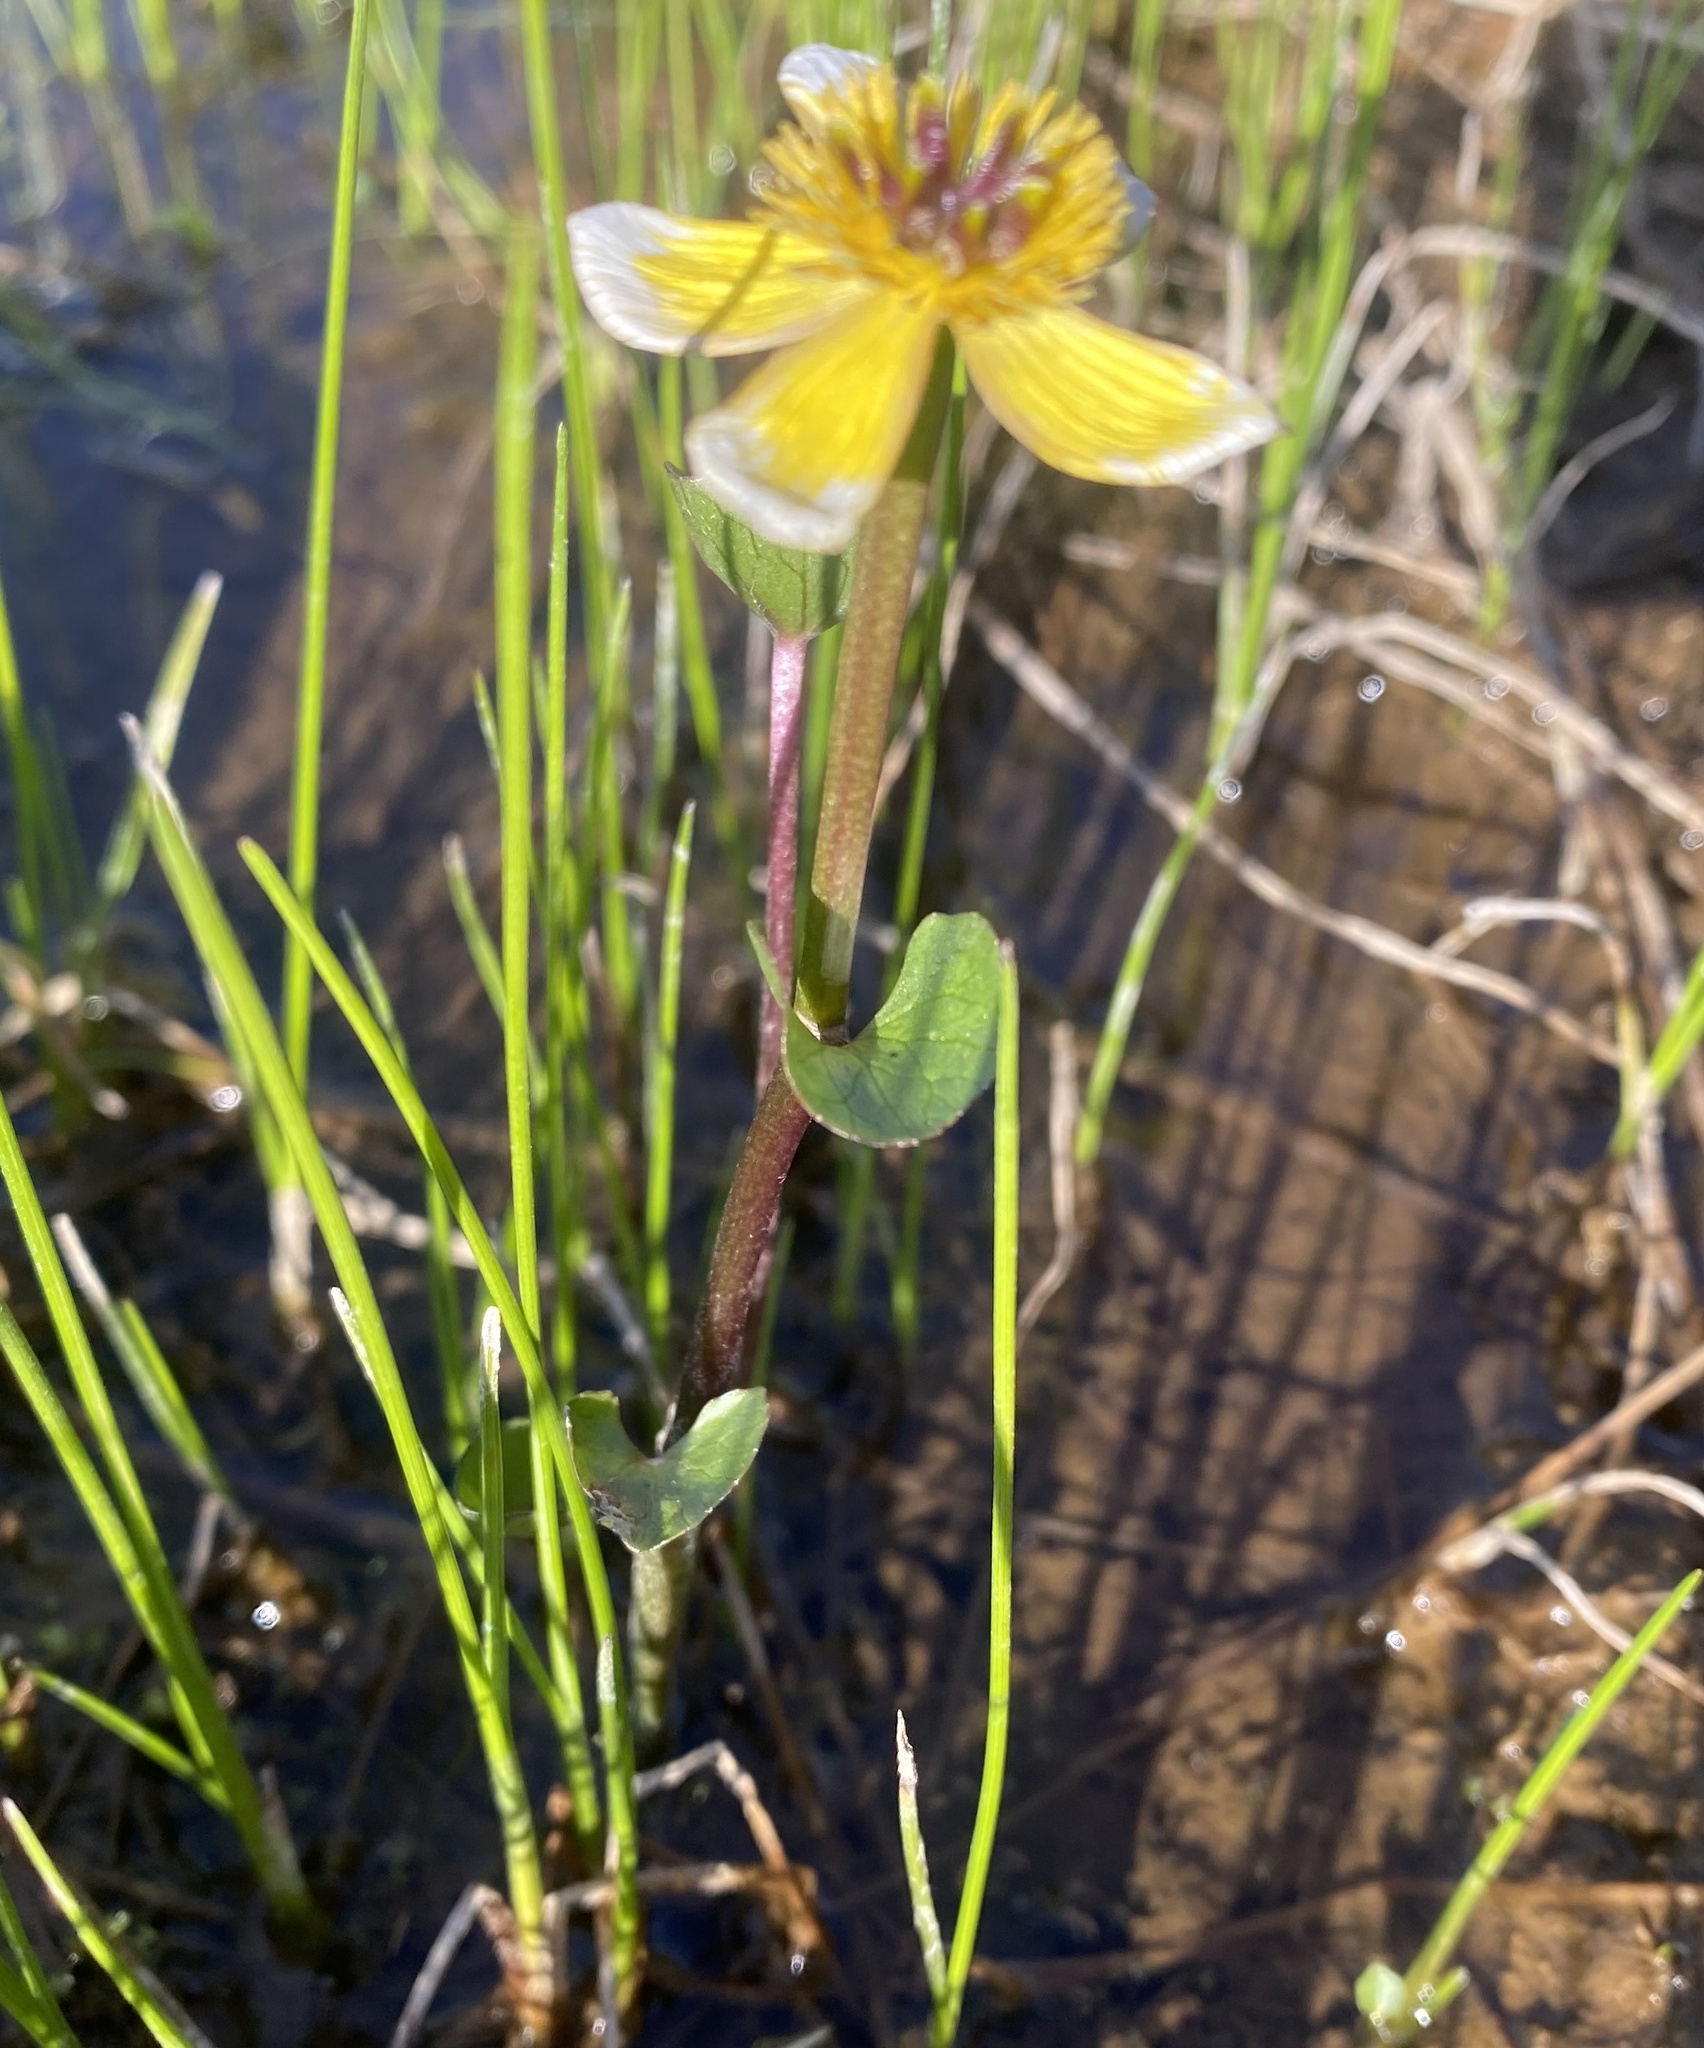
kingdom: Plantae
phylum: Tracheophyta
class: Magnoliopsida
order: Ranunculales
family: Ranunculaceae
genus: Caltha
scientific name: Caltha palustris
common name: Marsh marigold
